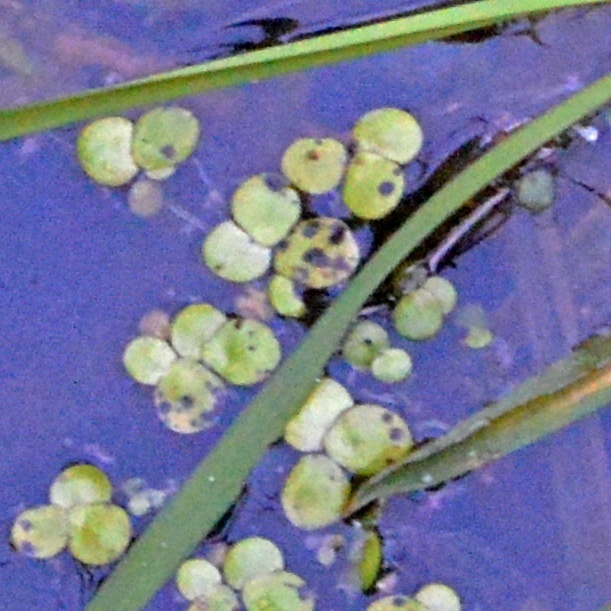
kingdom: Plantae
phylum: Tracheophyta
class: Liliopsida
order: Alismatales
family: Araceae
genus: Spirodela
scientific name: Spirodela polyrhiza
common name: Great duckweed
